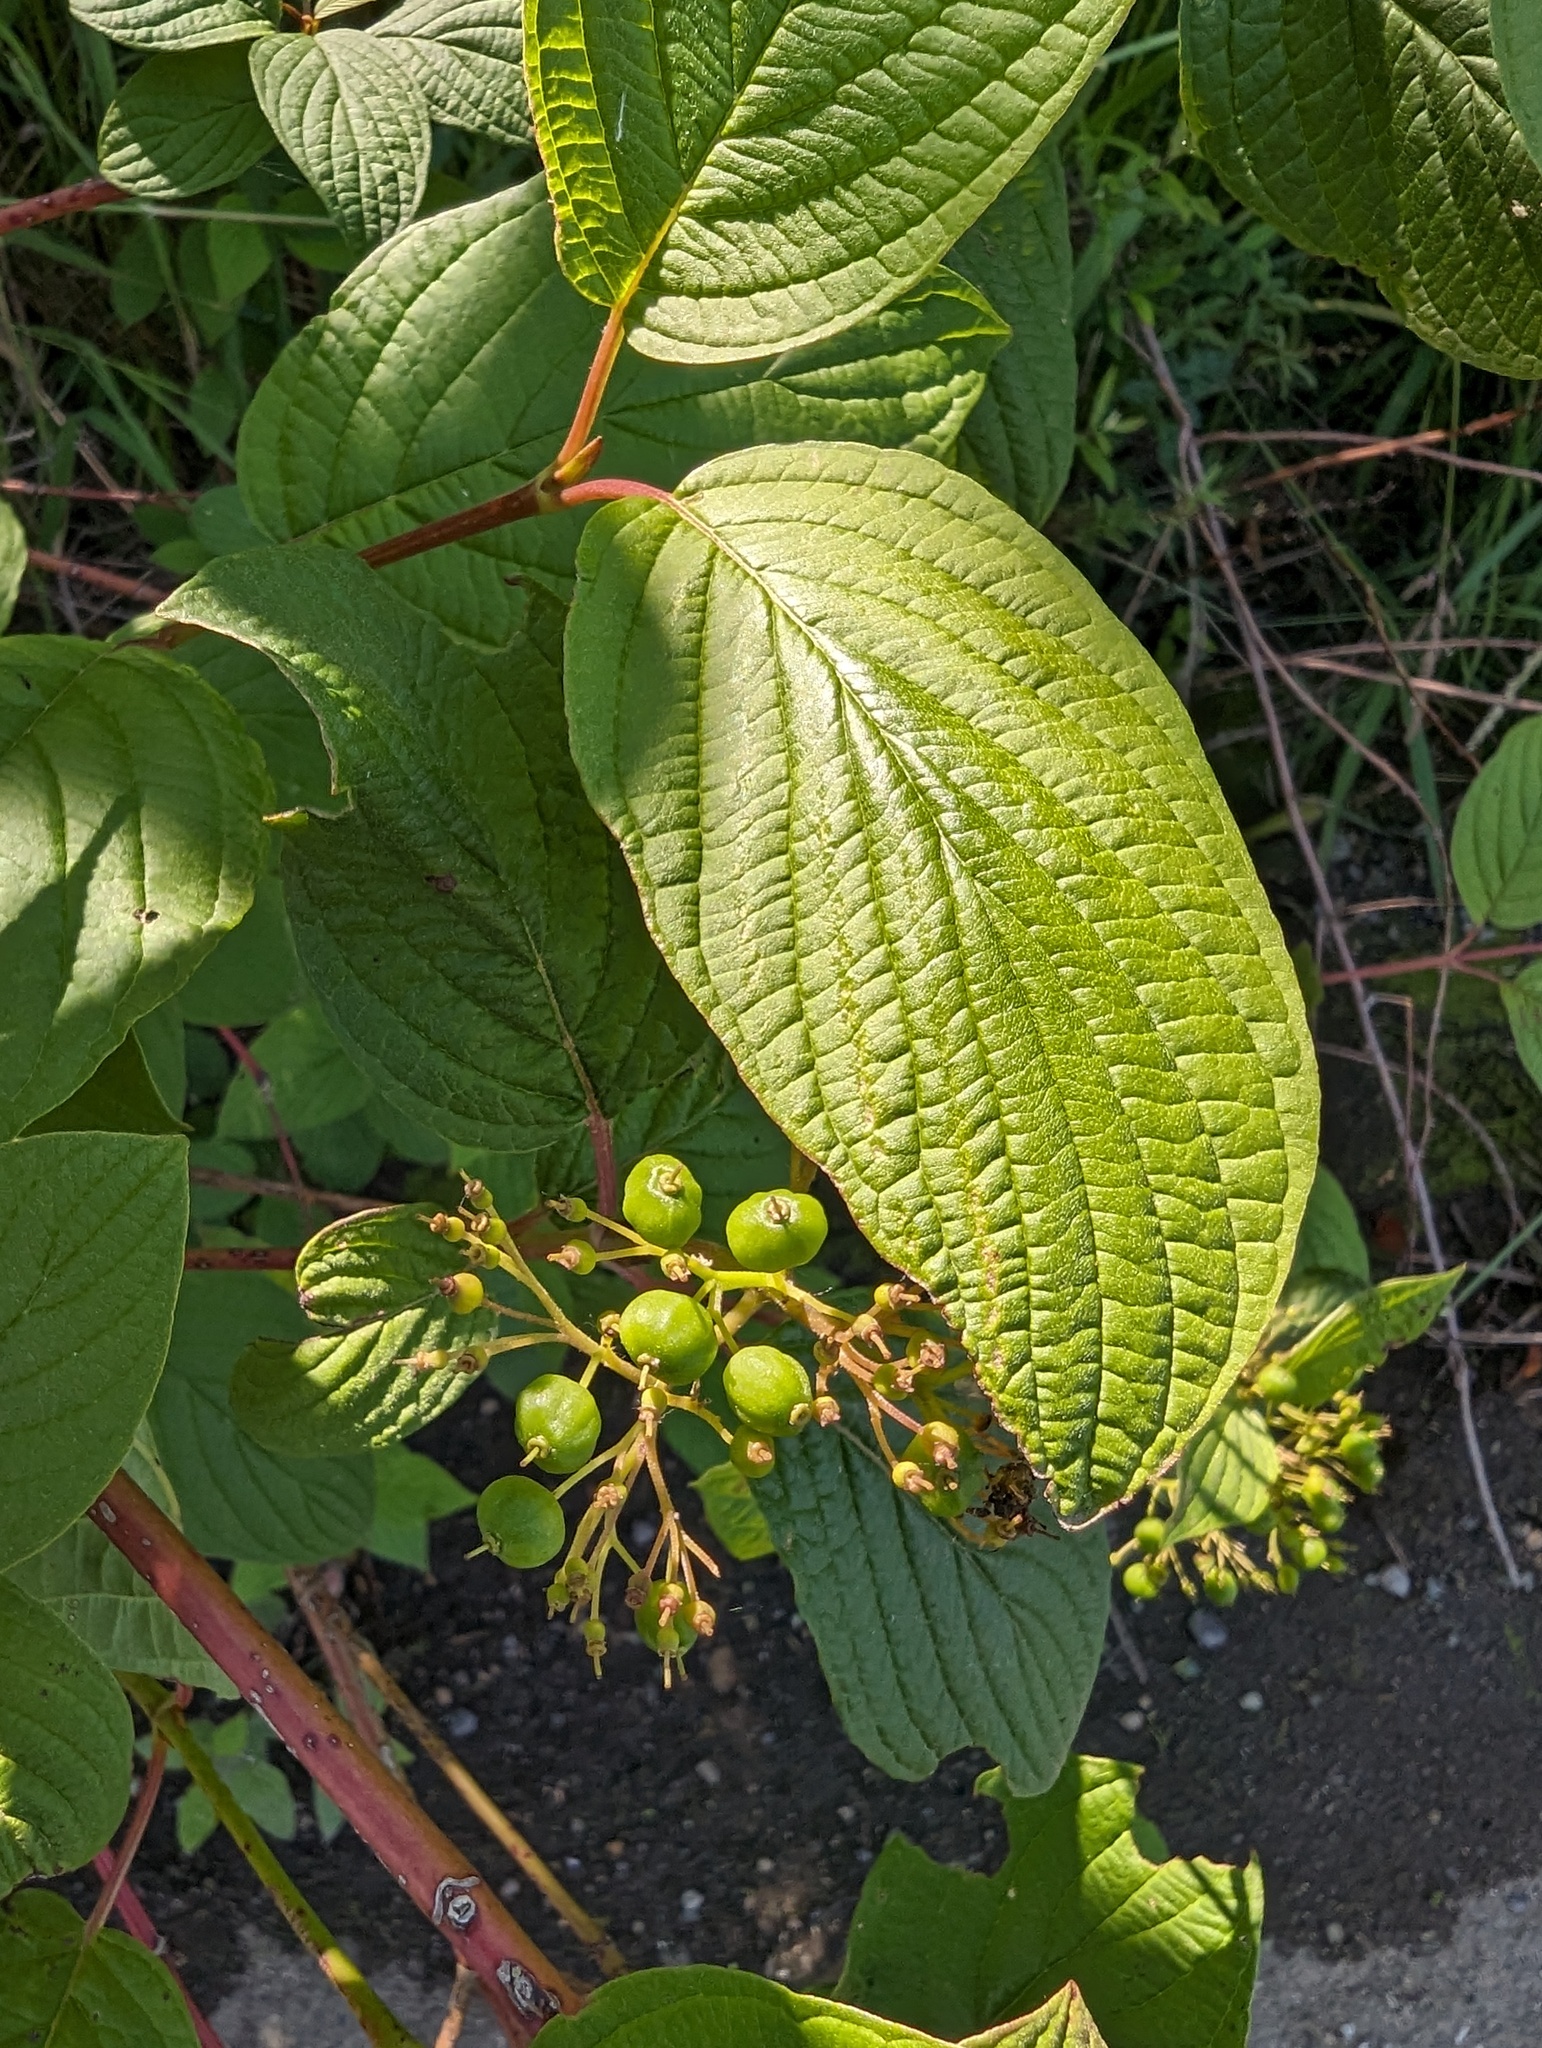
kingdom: Plantae
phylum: Tracheophyta
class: Magnoliopsida
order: Cornales
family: Cornaceae
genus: Cornus
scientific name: Cornus sericea
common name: Red-osier dogwood
